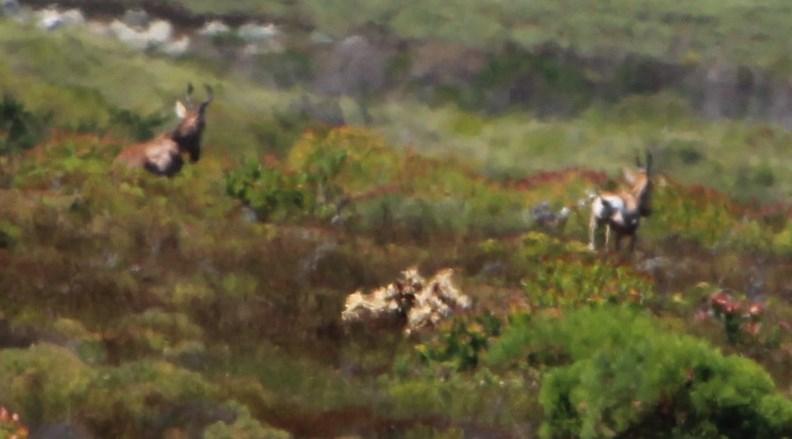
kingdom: Animalia
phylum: Chordata
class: Mammalia
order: Artiodactyla
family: Bovidae
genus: Alcelaphus
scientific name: Alcelaphus caama
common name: Red hartebeest
